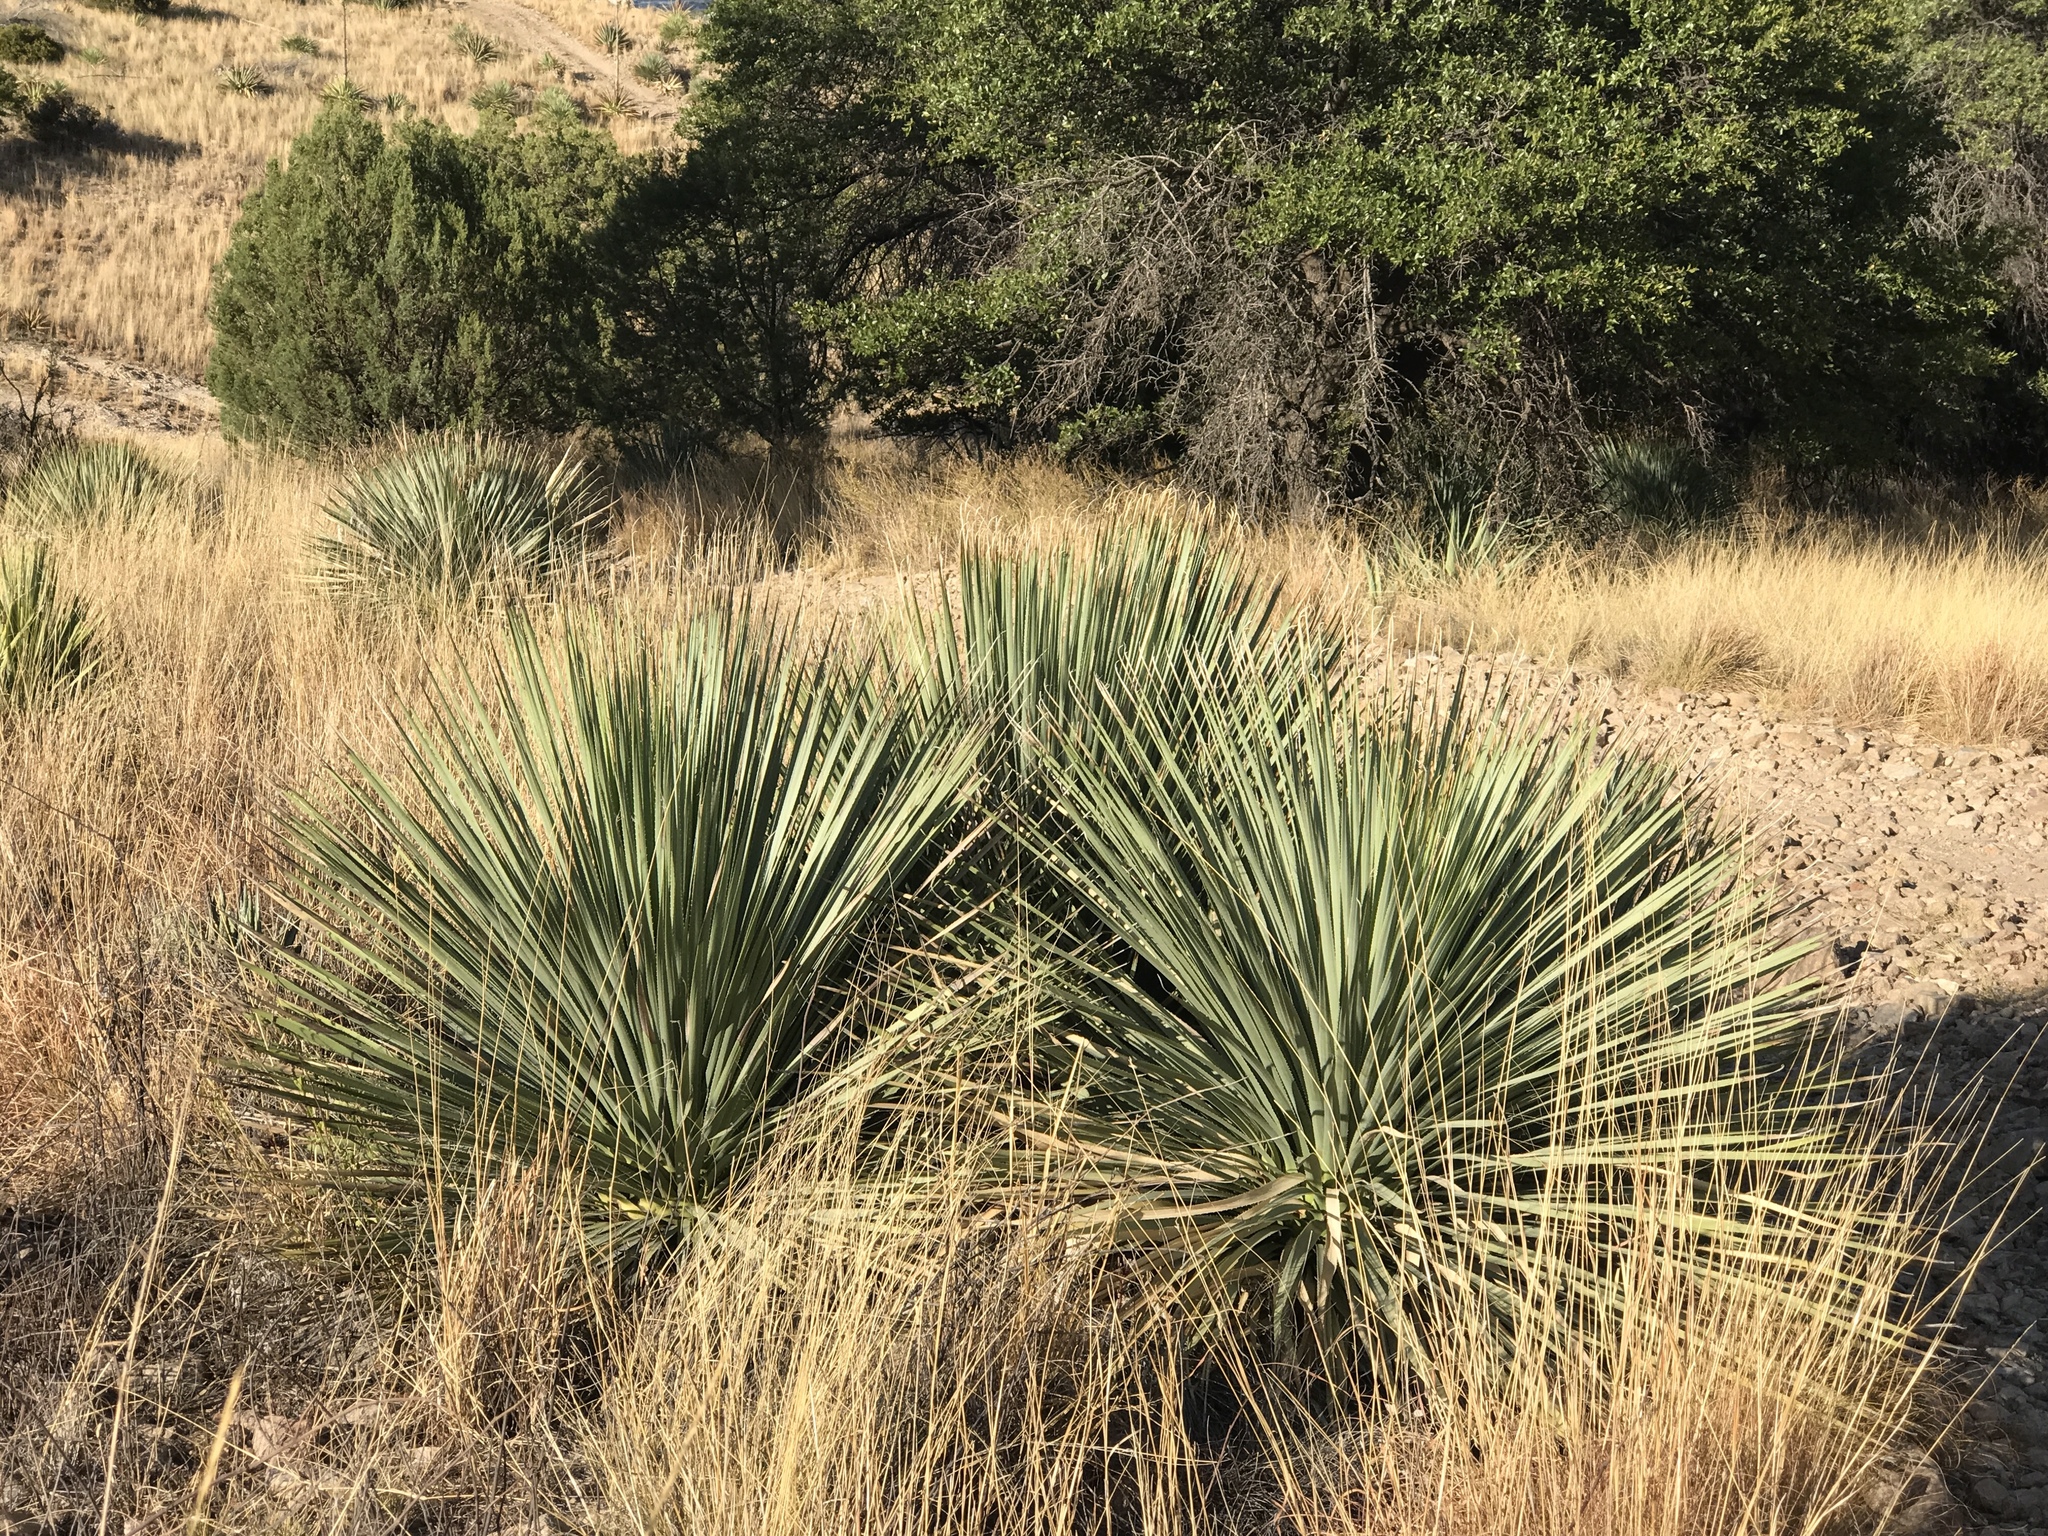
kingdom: Plantae
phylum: Tracheophyta
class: Liliopsida
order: Asparagales
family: Asparagaceae
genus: Dasylirion
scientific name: Dasylirion wheeleri
